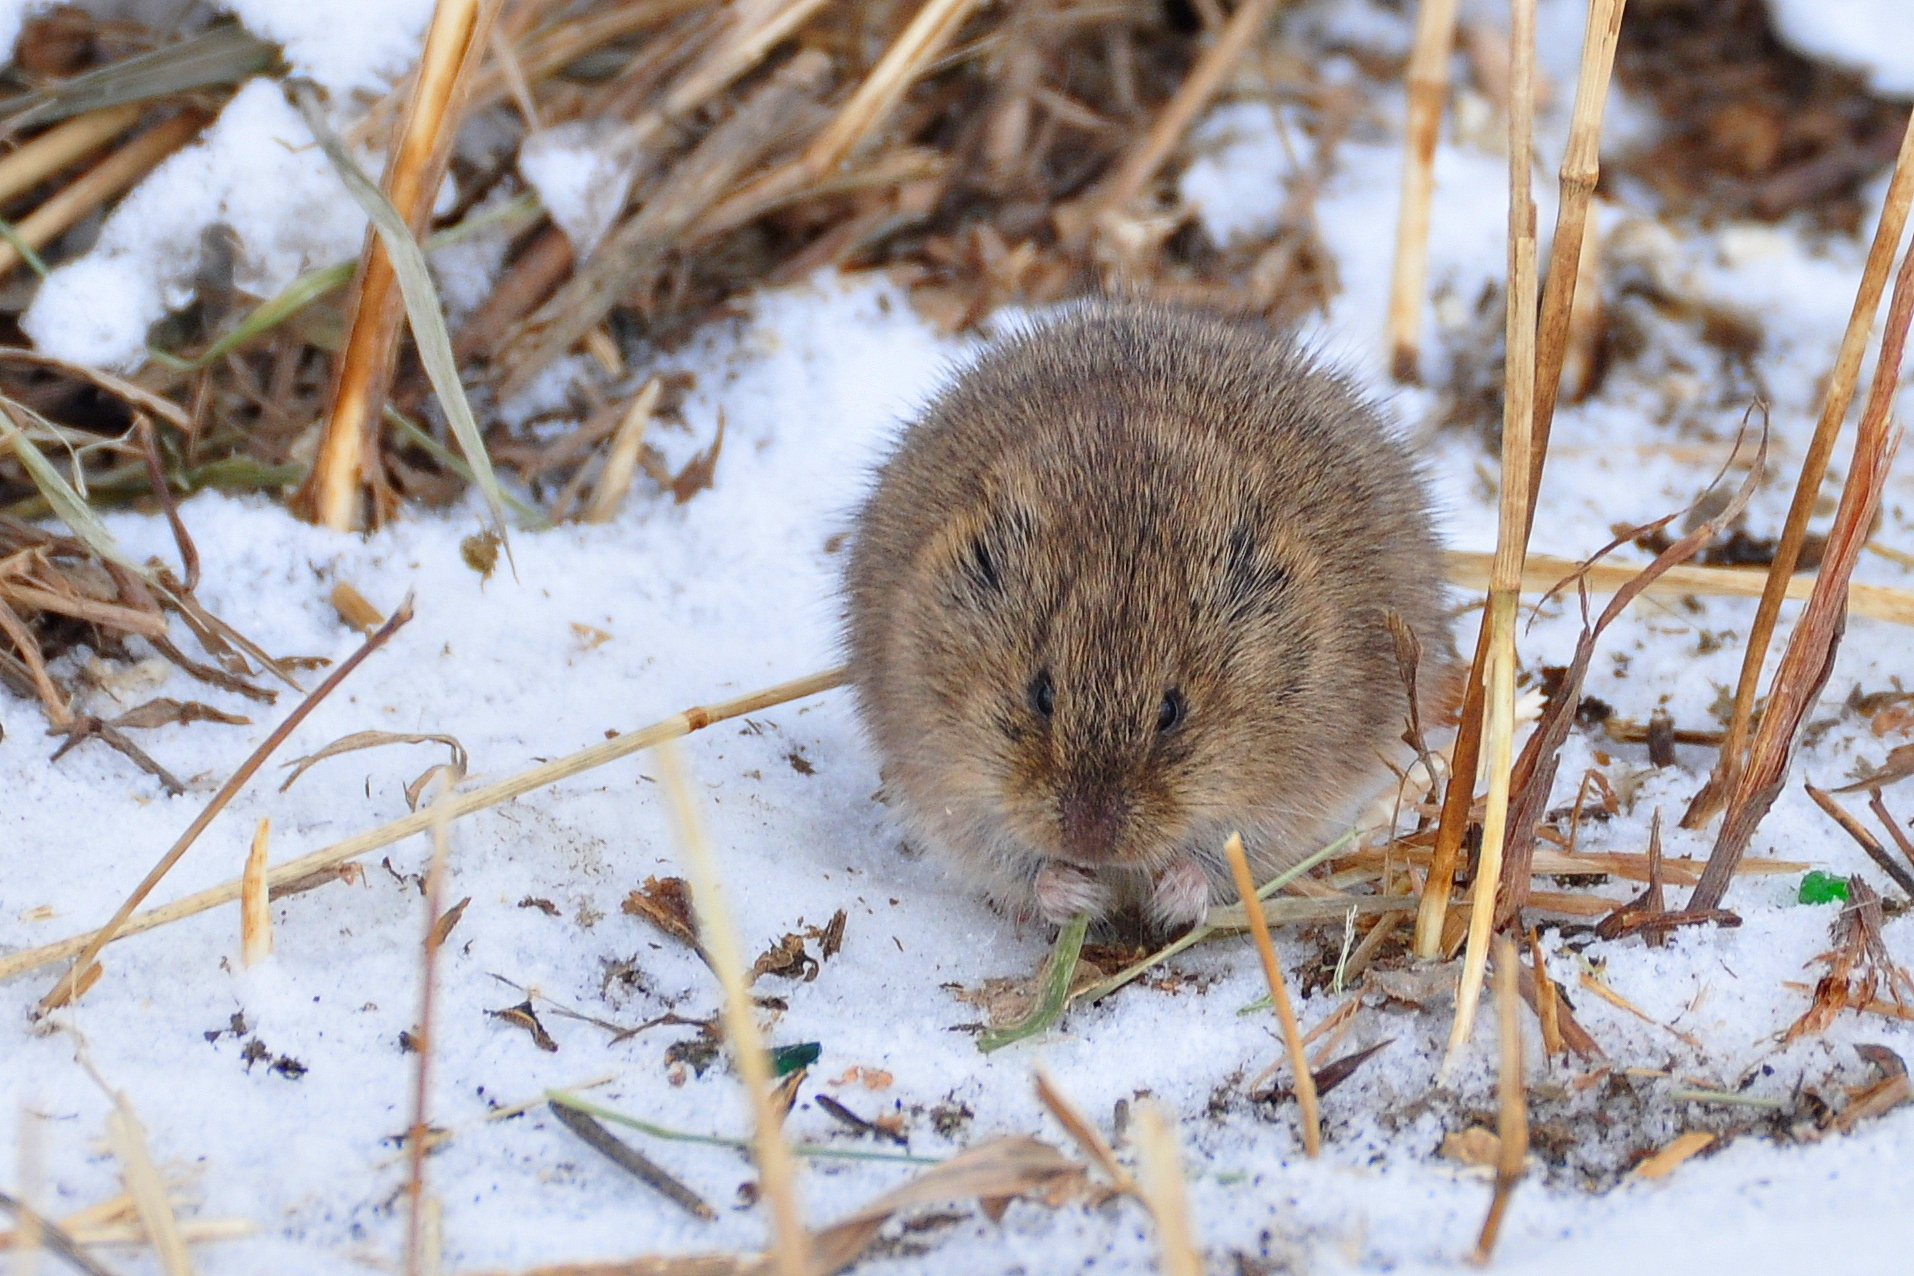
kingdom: Animalia
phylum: Chordata
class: Mammalia
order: Rodentia
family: Cricetidae
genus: Microtus
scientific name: Microtus
